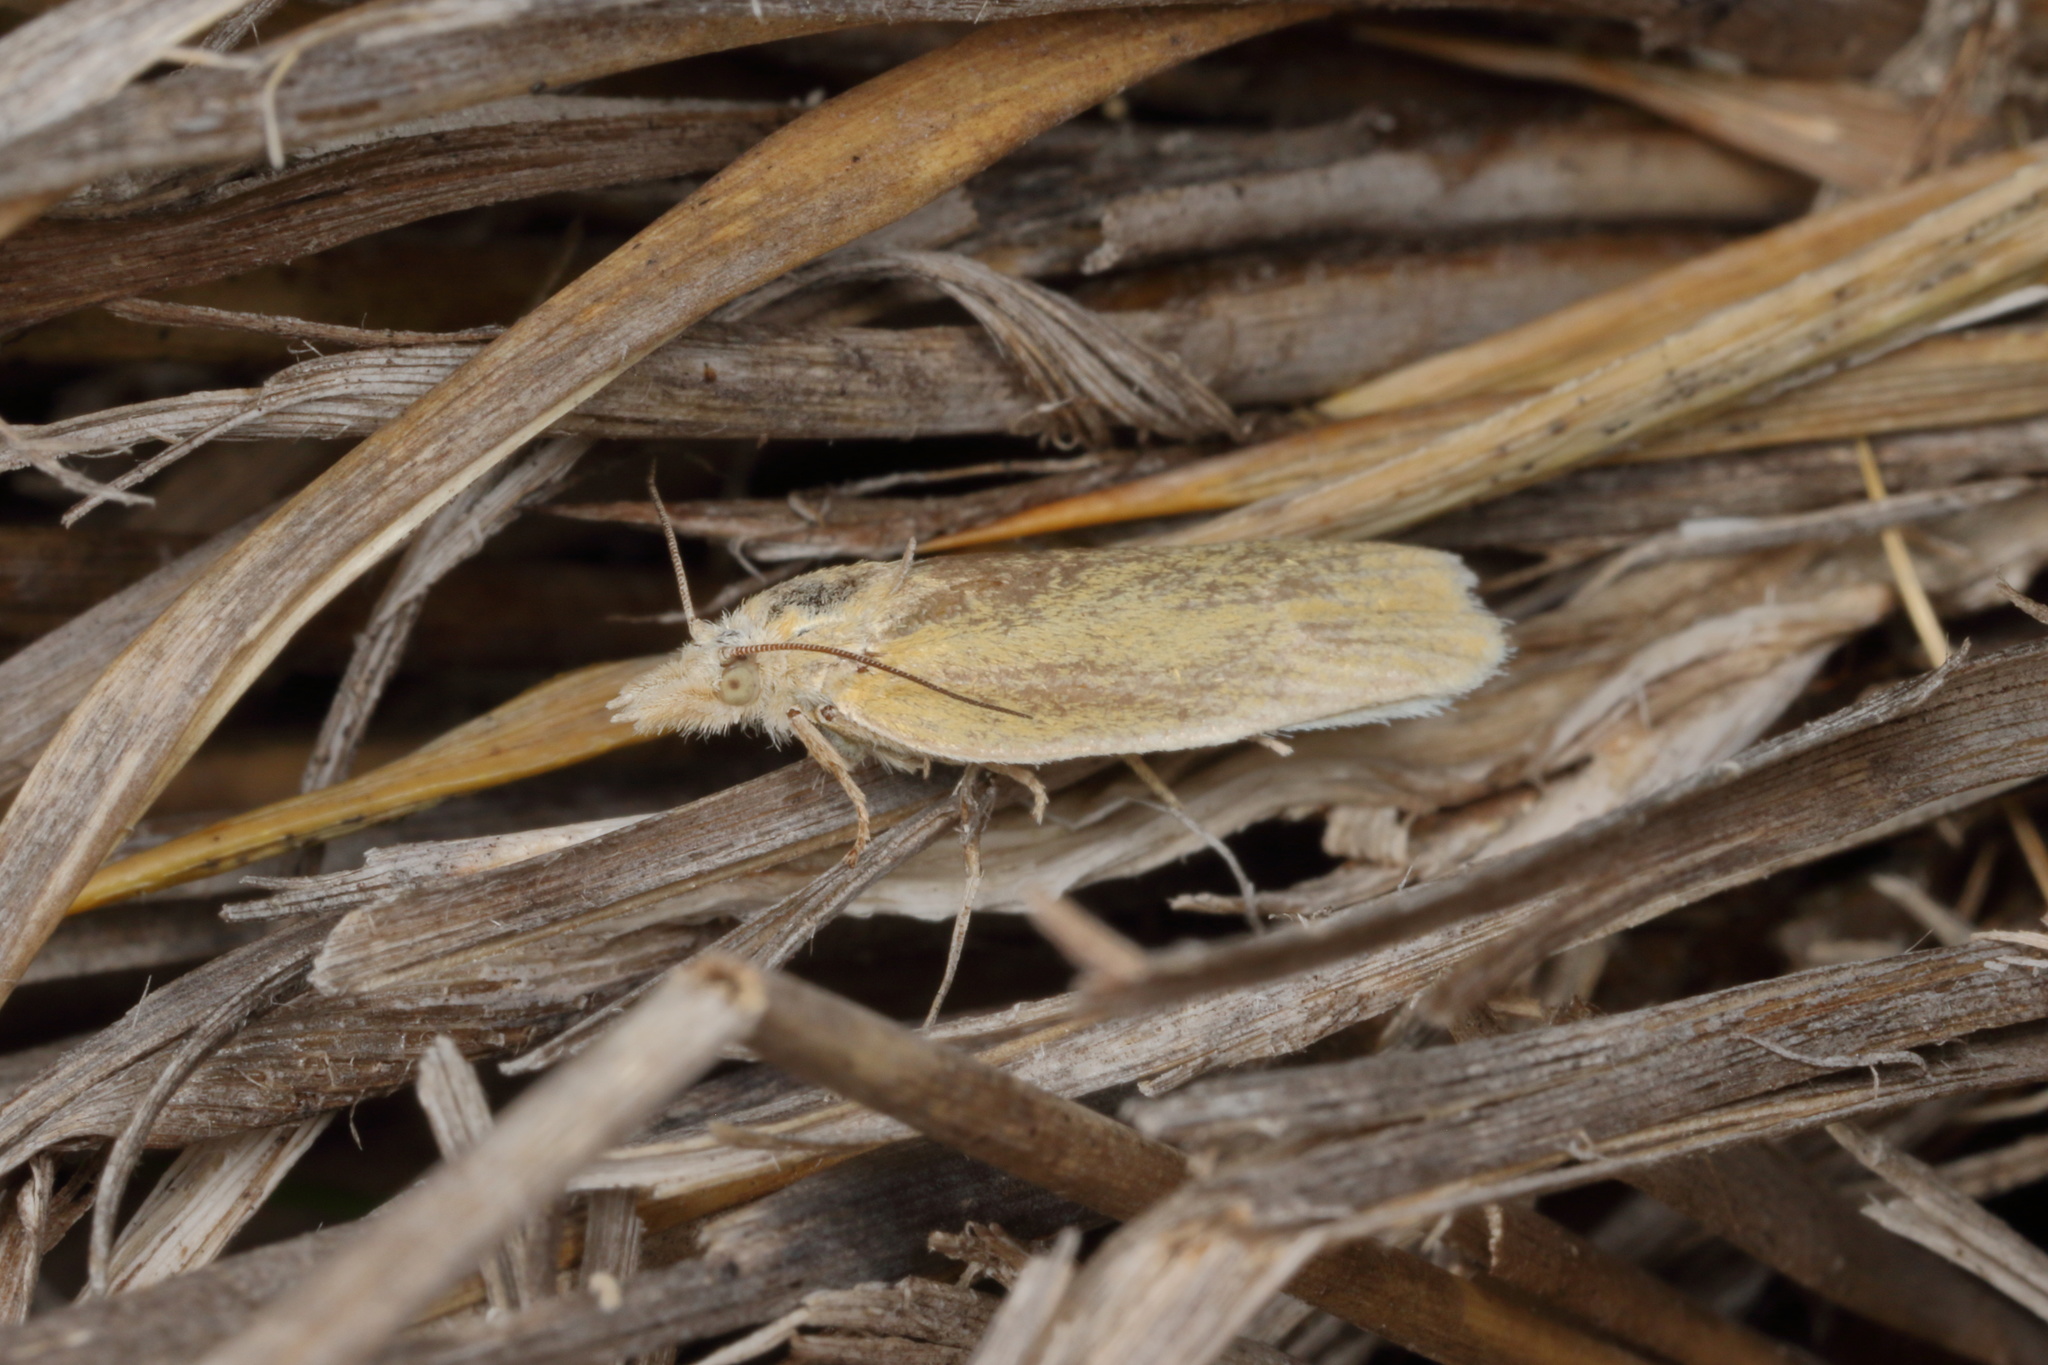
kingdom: Animalia
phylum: Arthropoda
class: Insecta
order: Lepidoptera
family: Tortricidae
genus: Ascerodes
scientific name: Ascerodes prochlora
